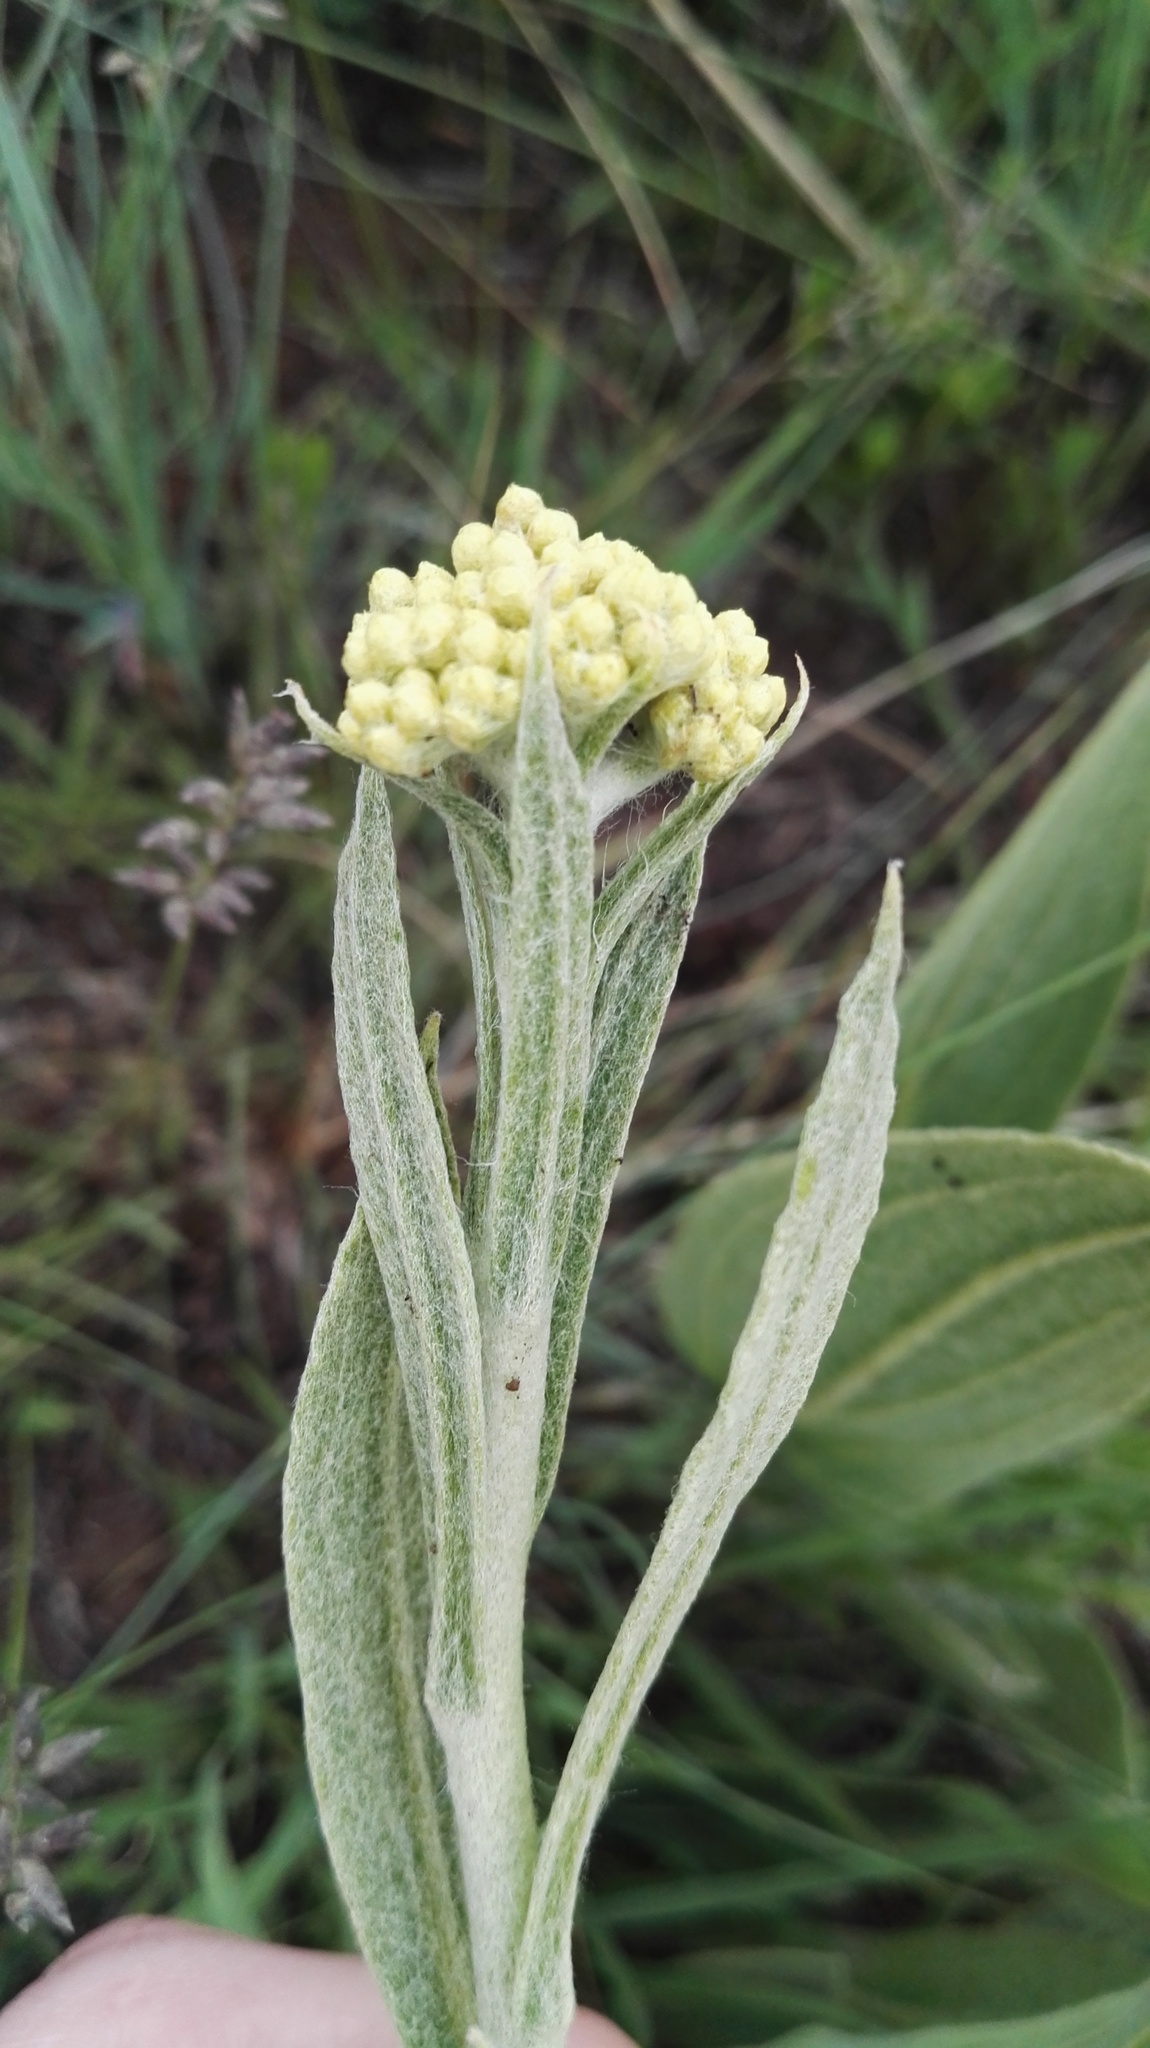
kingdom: Plantae
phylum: Tracheophyta
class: Magnoliopsida
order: Asterales
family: Asteraceae
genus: Helichrysum
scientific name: Helichrysum acutatum
